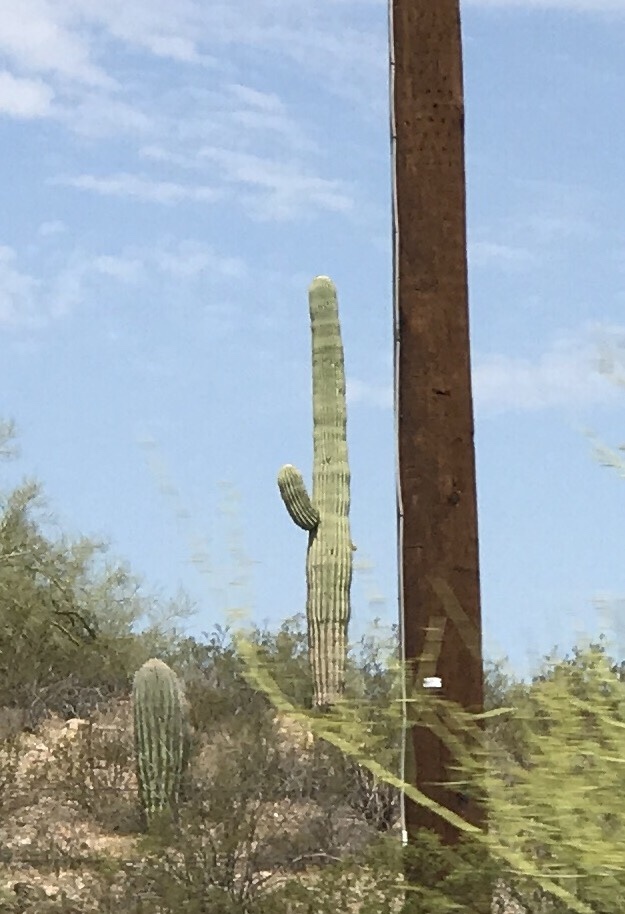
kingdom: Plantae
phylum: Tracheophyta
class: Magnoliopsida
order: Caryophyllales
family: Cactaceae
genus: Carnegiea
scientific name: Carnegiea gigantea
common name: Saguaro
